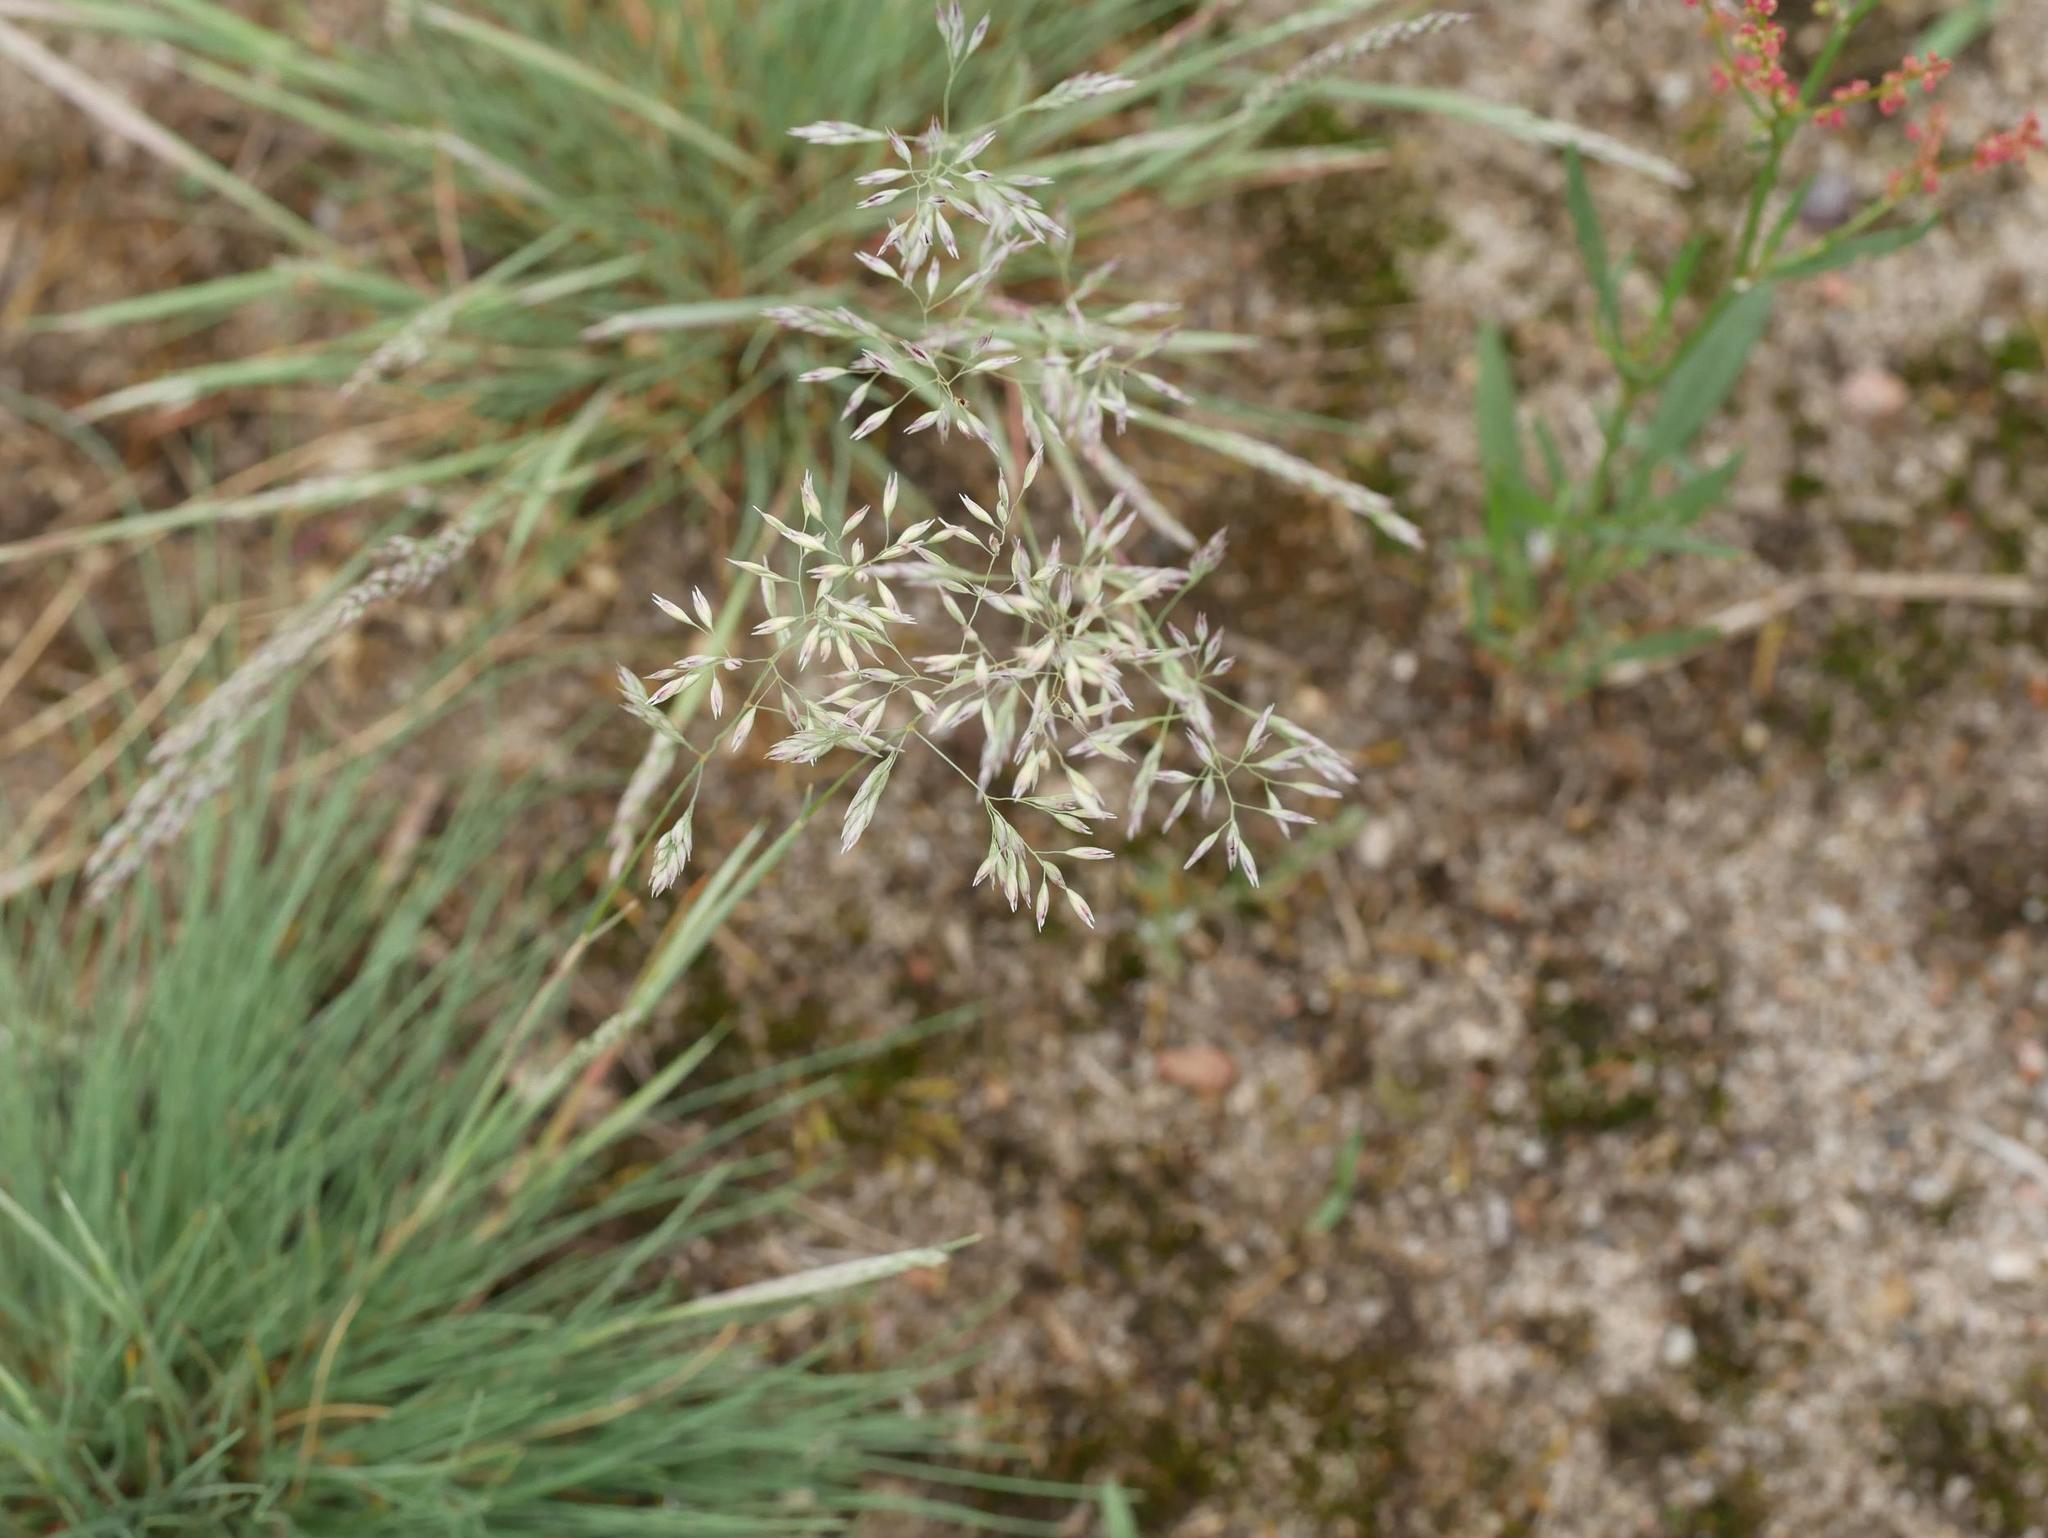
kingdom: Plantae
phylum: Tracheophyta
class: Liliopsida
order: Poales
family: Poaceae
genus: Corynephorus
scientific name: Corynephorus canescens
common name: Grey hair-grass
